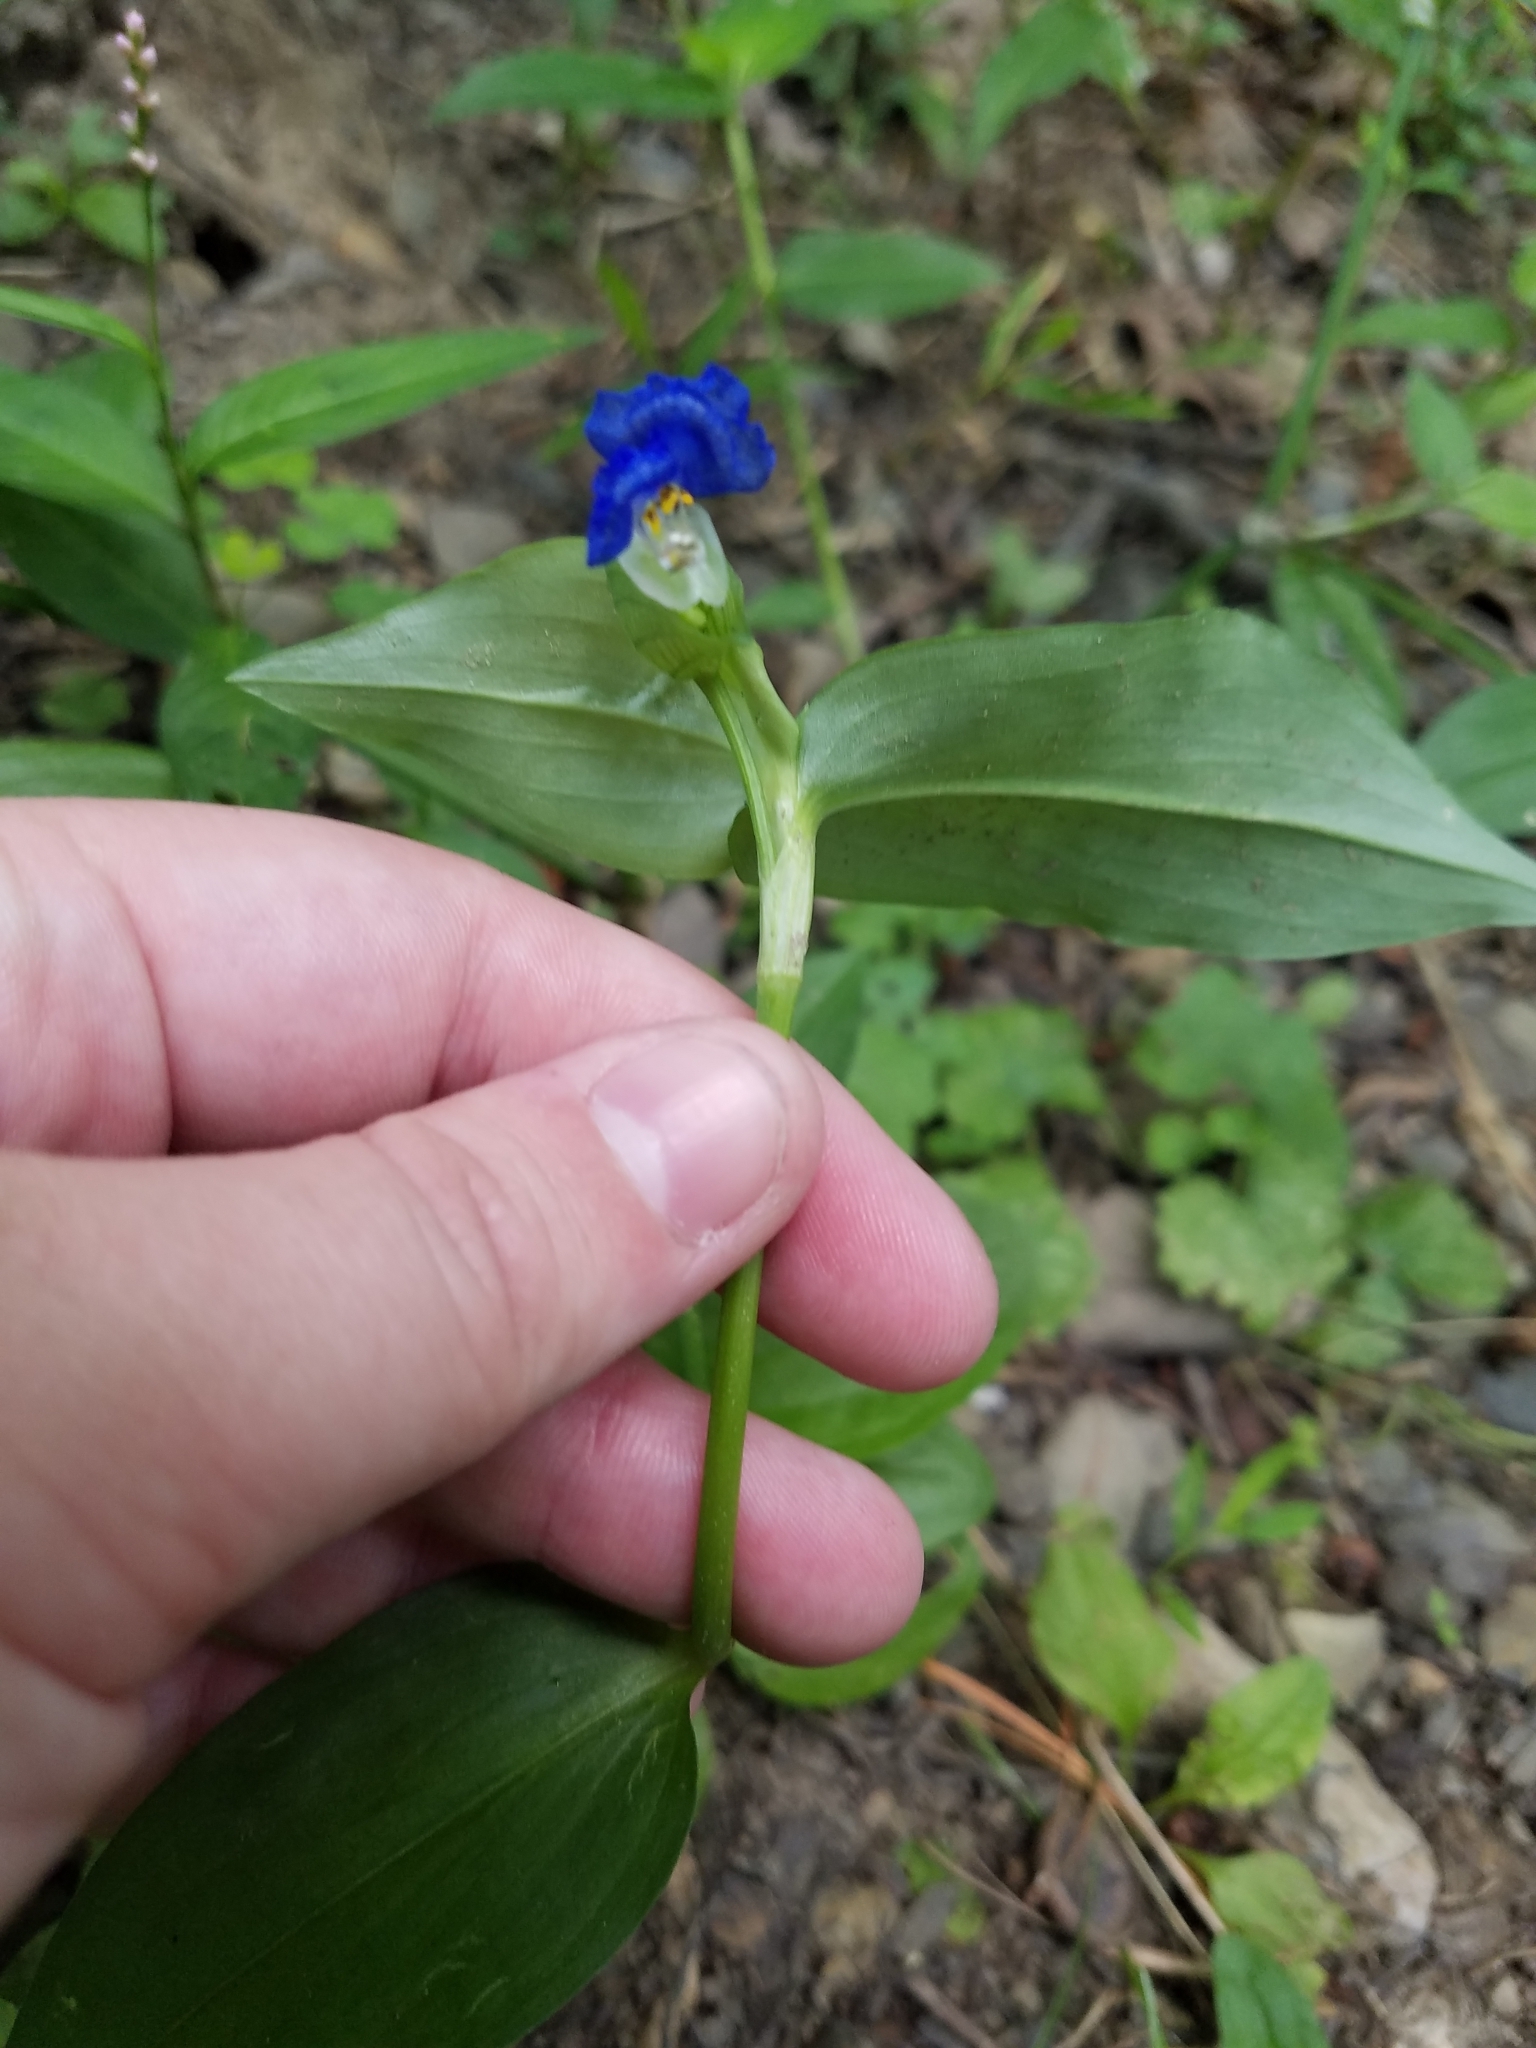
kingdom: Plantae
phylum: Tracheophyta
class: Liliopsida
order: Commelinales
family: Commelinaceae
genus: Commelina
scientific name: Commelina communis
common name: Asiatic dayflower
